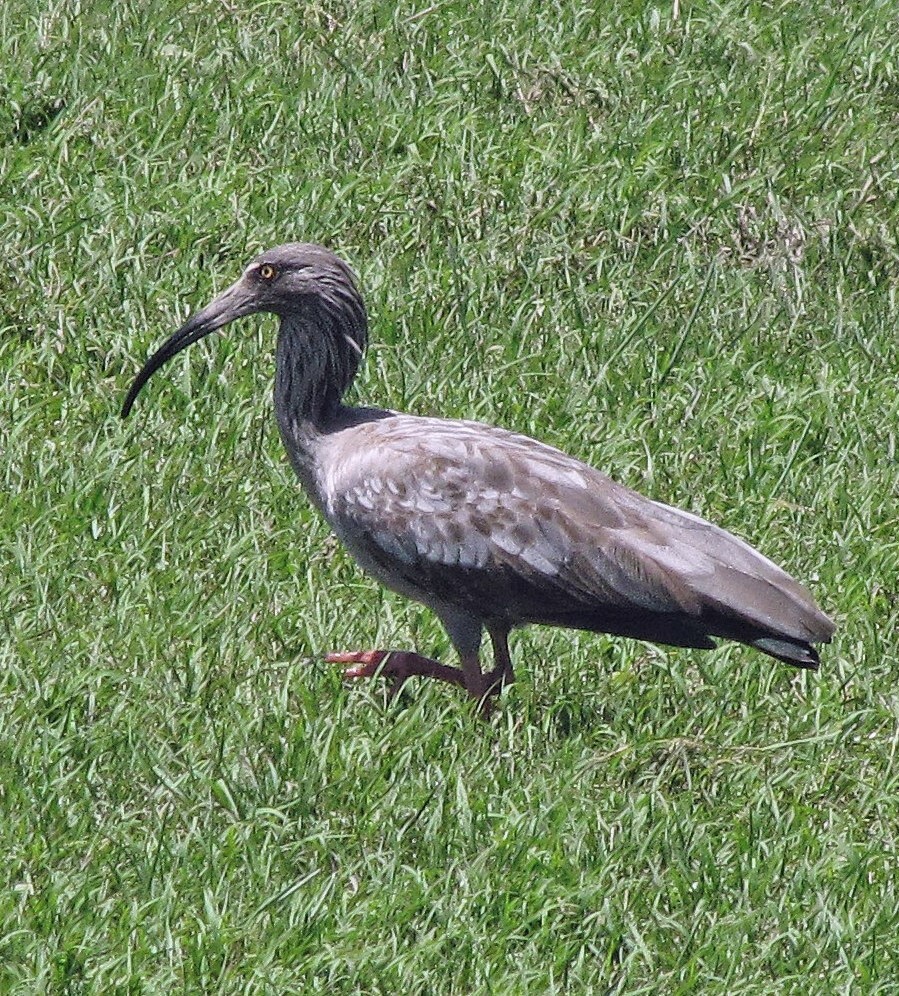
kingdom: Animalia
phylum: Chordata
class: Aves
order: Pelecaniformes
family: Threskiornithidae
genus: Theristicus
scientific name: Theristicus caerulescens
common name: Plumbeous ibis
